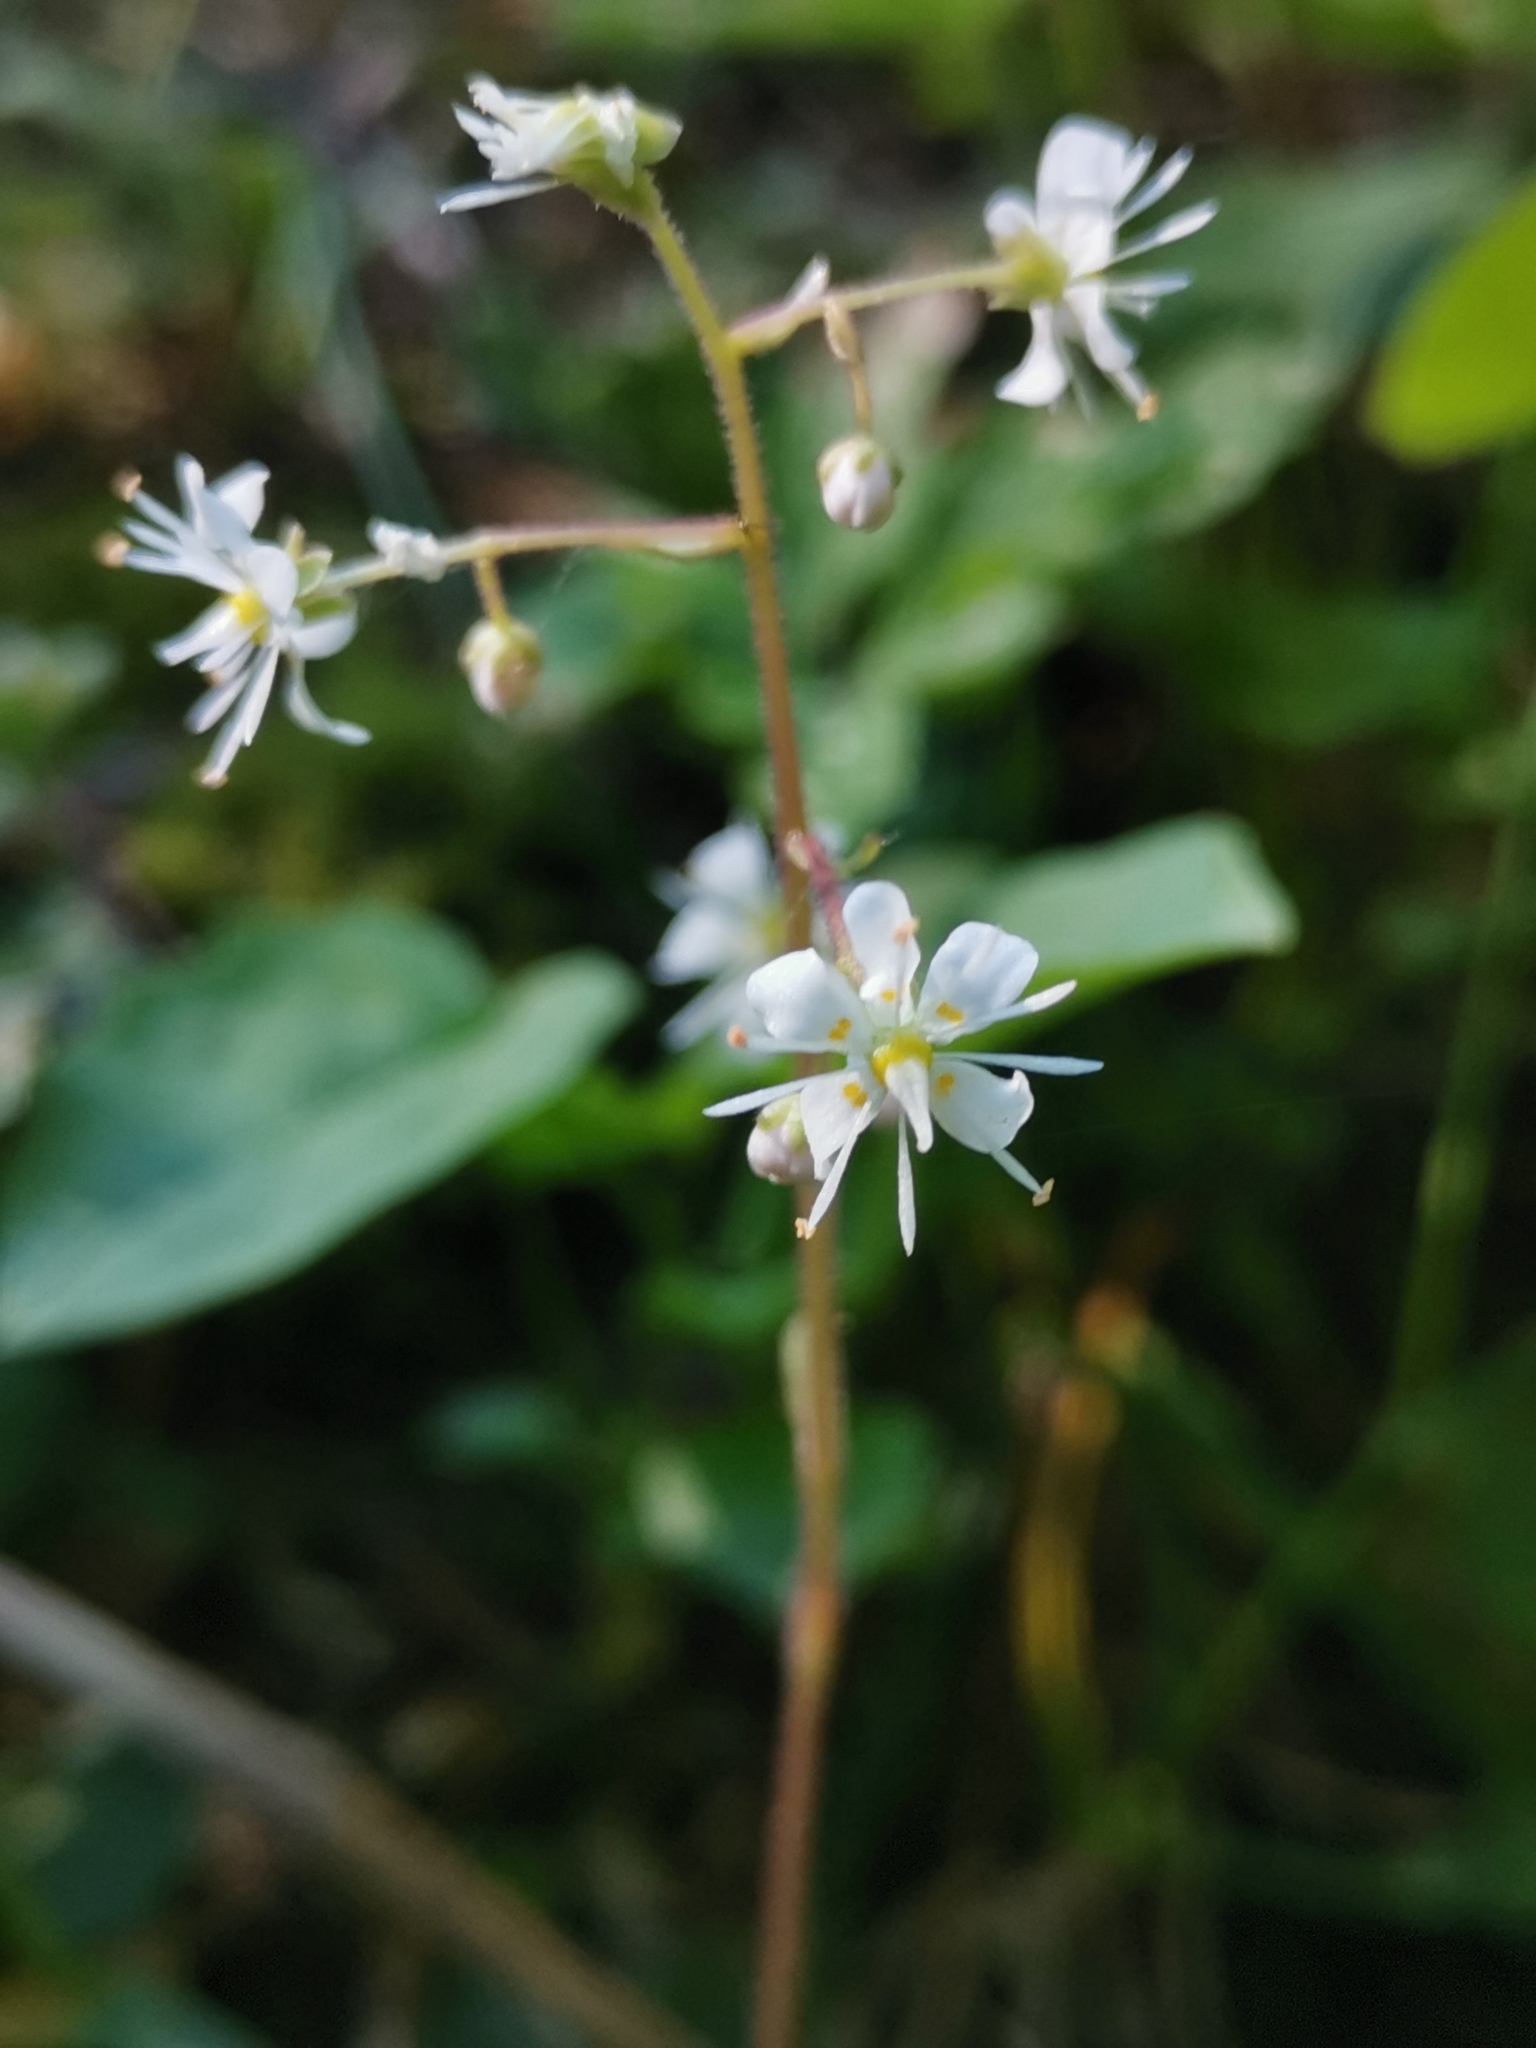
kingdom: Plantae
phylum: Tracheophyta
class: Magnoliopsida
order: Saxifragales
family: Saxifragaceae
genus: Saxifraga
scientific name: Saxifraga cuneifolia
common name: Lesser londonpride
